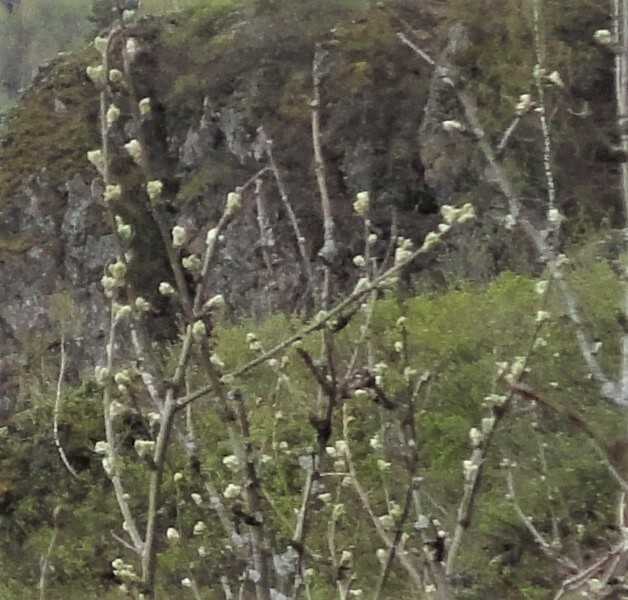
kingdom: Plantae
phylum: Tracheophyta
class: Magnoliopsida
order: Fabales
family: Fabaceae
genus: Caragana
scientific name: Caragana arborescens
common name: Siberian peashrub
